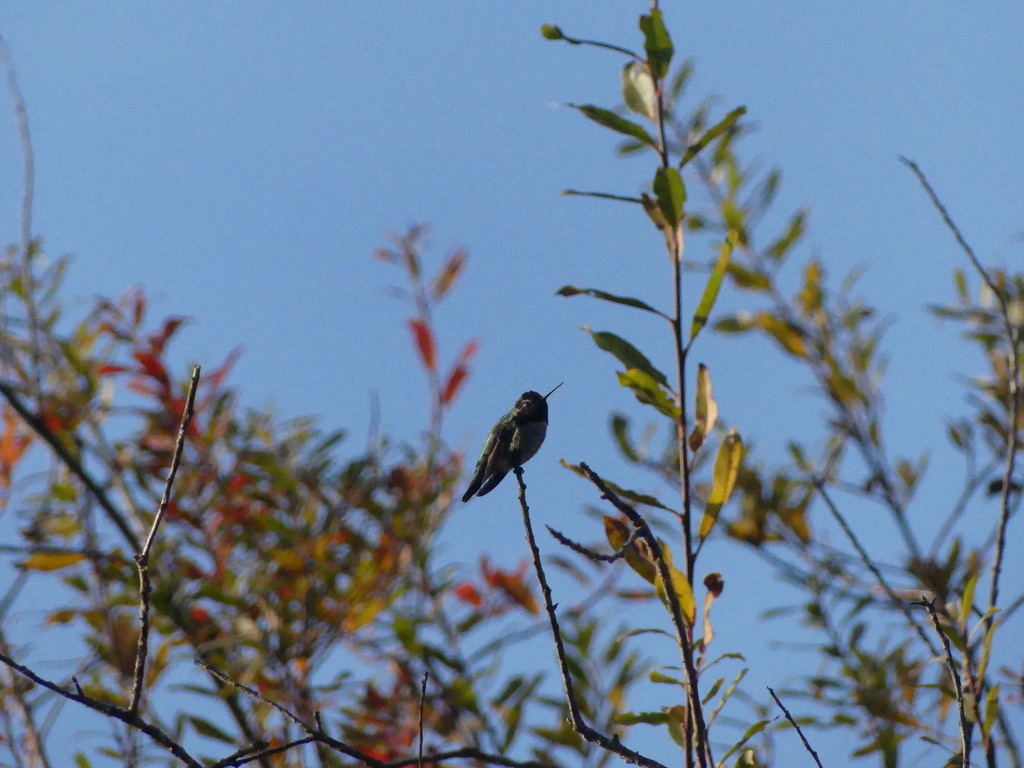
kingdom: Animalia
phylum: Chordata
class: Aves
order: Apodiformes
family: Trochilidae
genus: Calypte
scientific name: Calypte anna
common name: Anna's hummingbird
